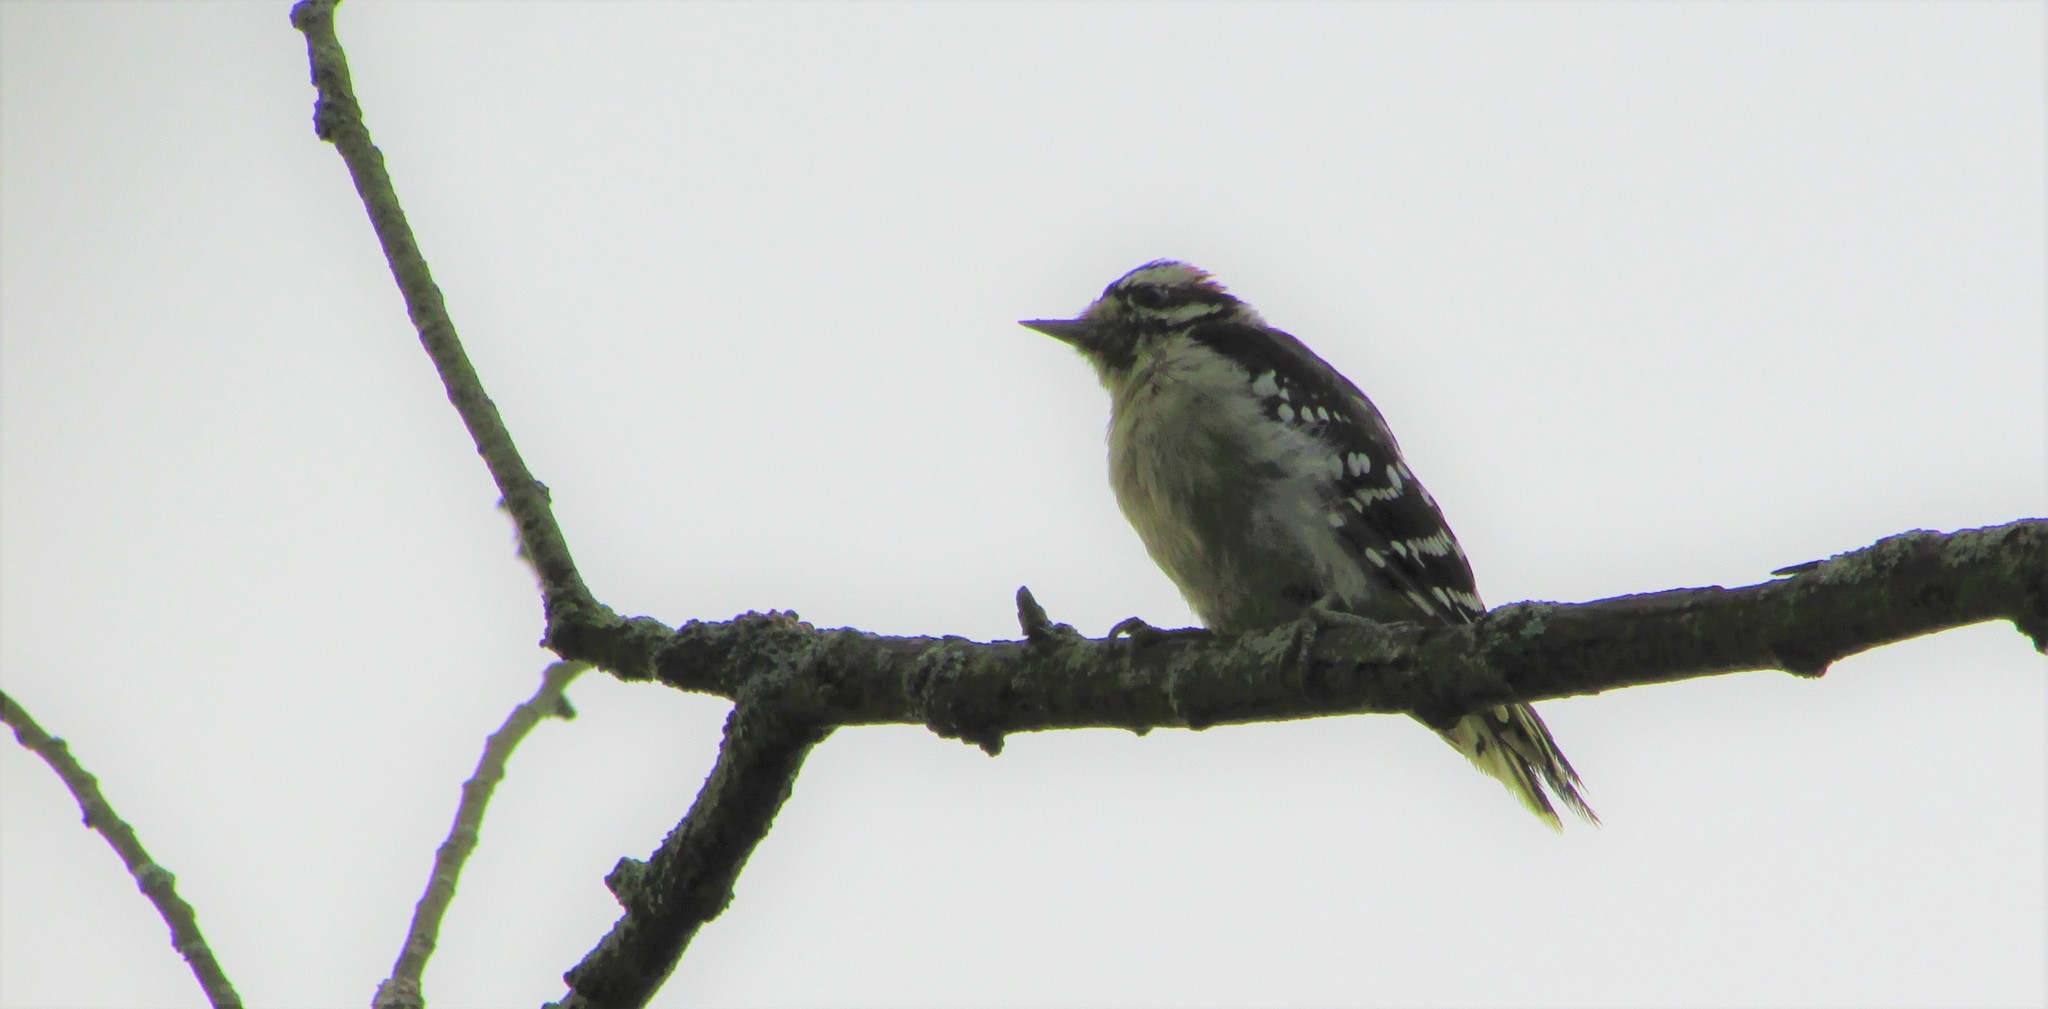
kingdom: Animalia
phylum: Chordata
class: Aves
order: Piciformes
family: Picidae
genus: Dryobates
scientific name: Dryobates pubescens
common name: Downy woodpecker
